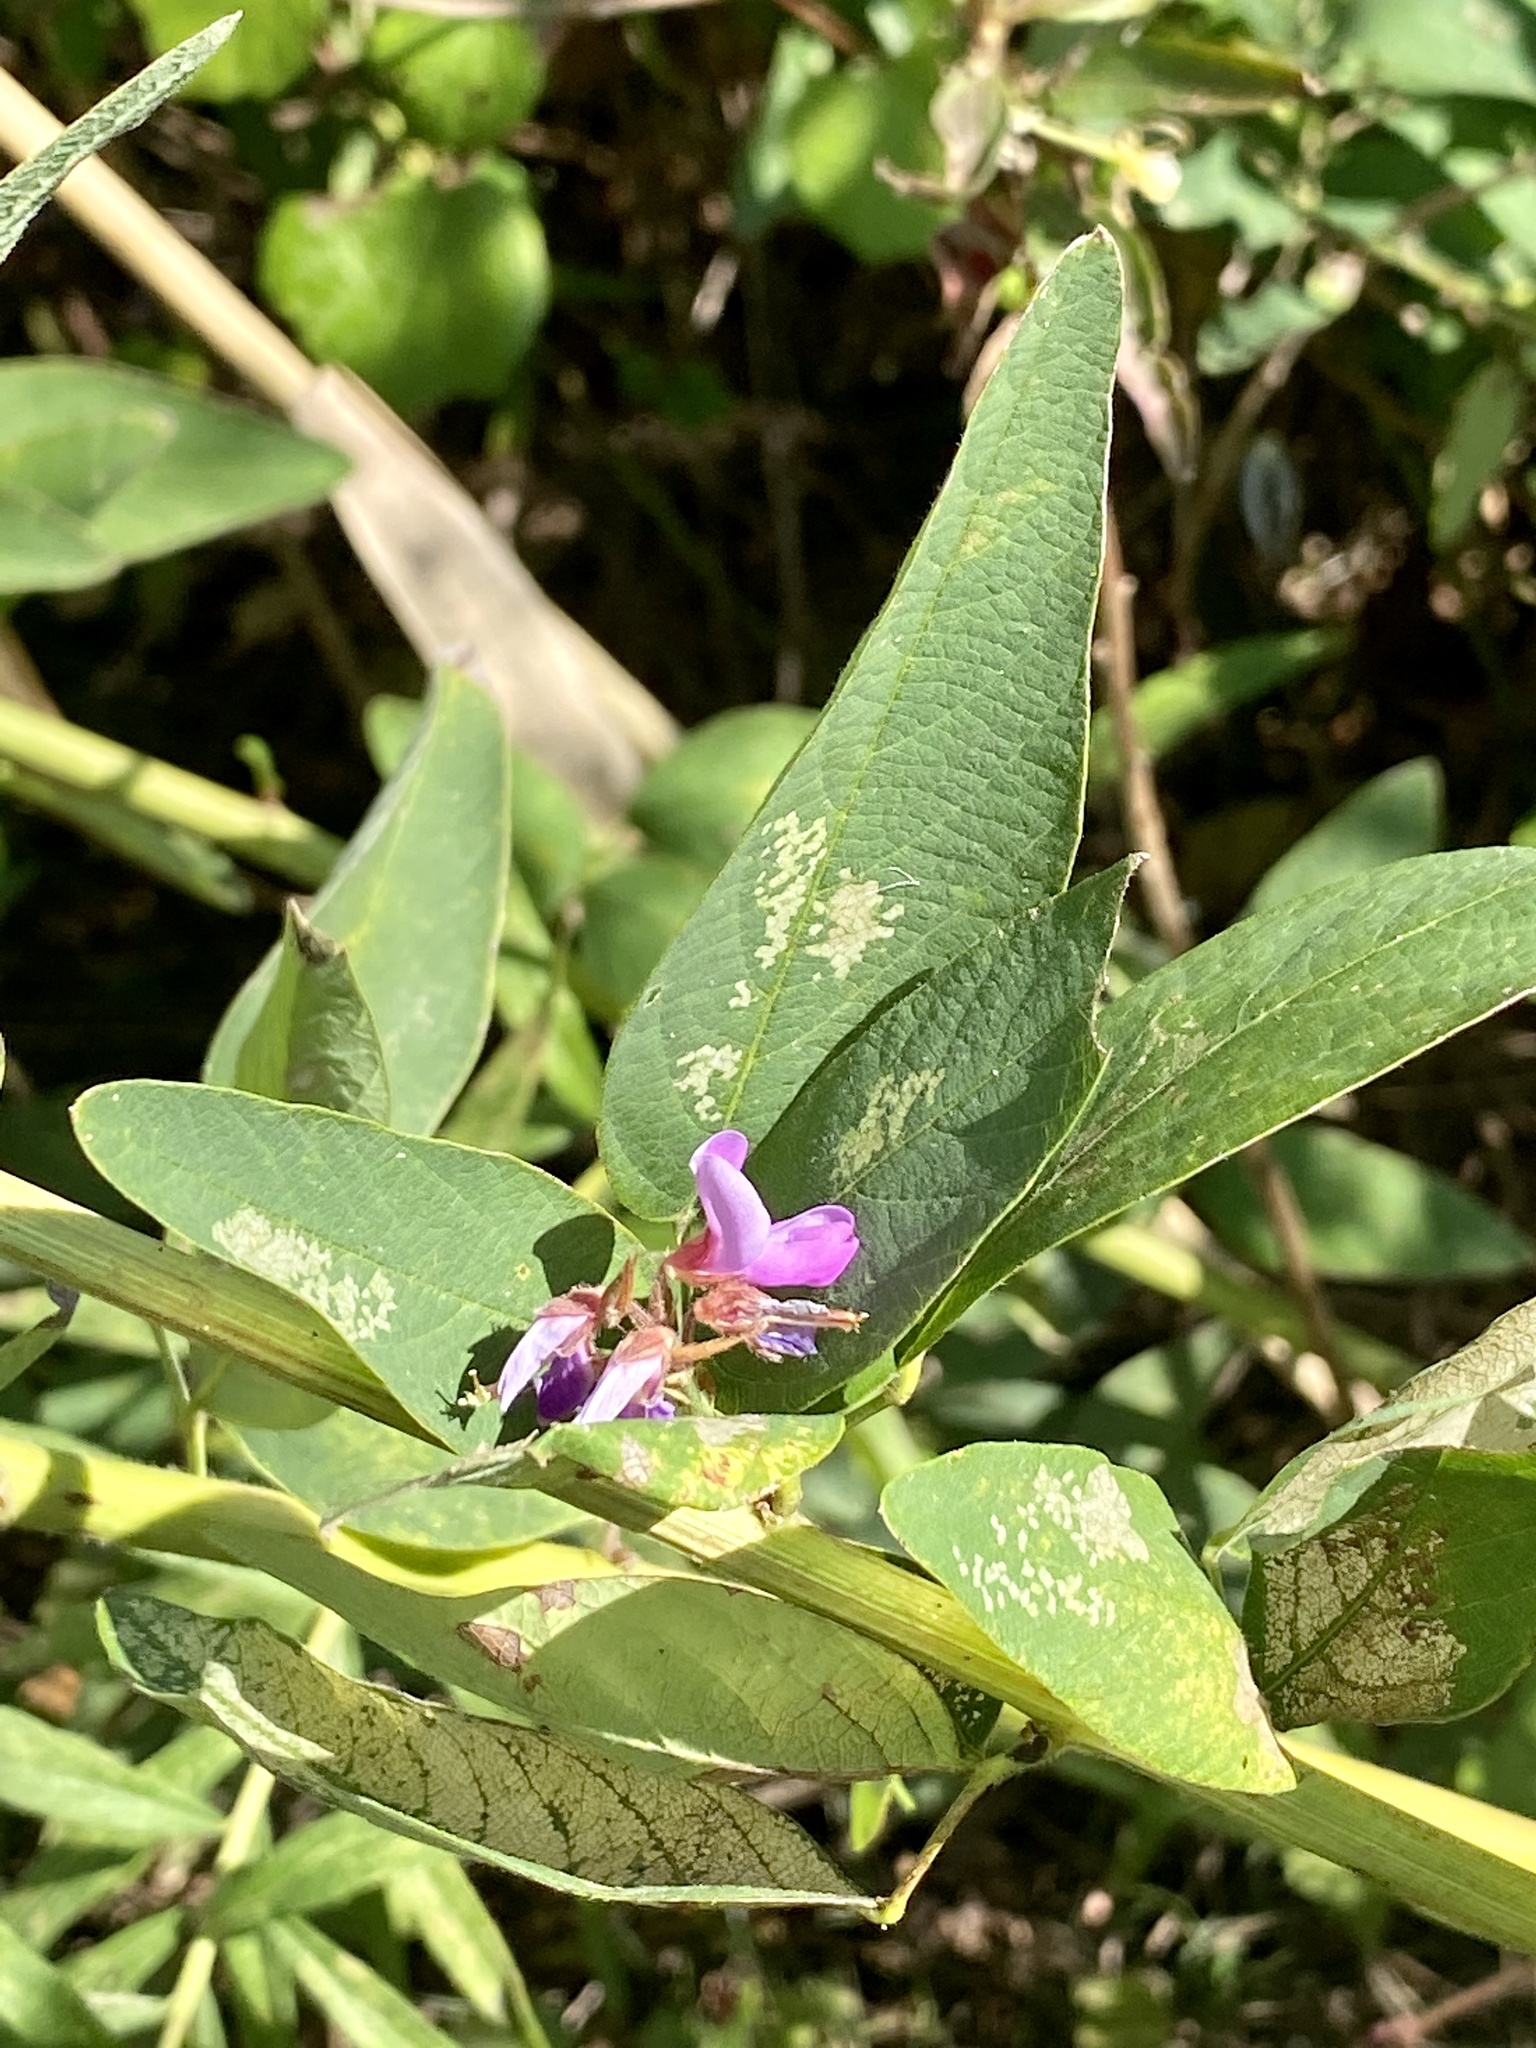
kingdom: Plantae
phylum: Tracheophyta
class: Magnoliopsida
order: Fabales
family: Fabaceae
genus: Desmodium
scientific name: Desmodium canadense
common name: Canada tick-trefoil
